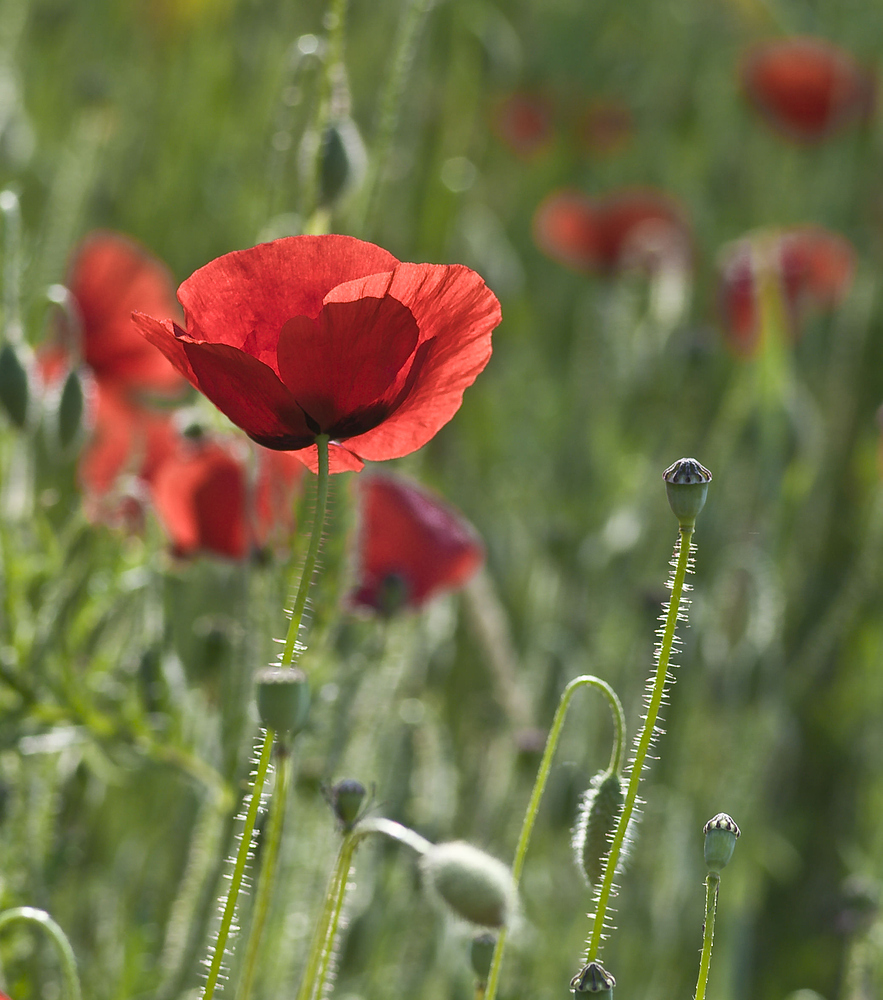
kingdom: Plantae
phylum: Tracheophyta
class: Magnoliopsida
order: Ranunculales
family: Papaveraceae
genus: Papaver
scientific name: Papaver rhoeas
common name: Corn poppy
